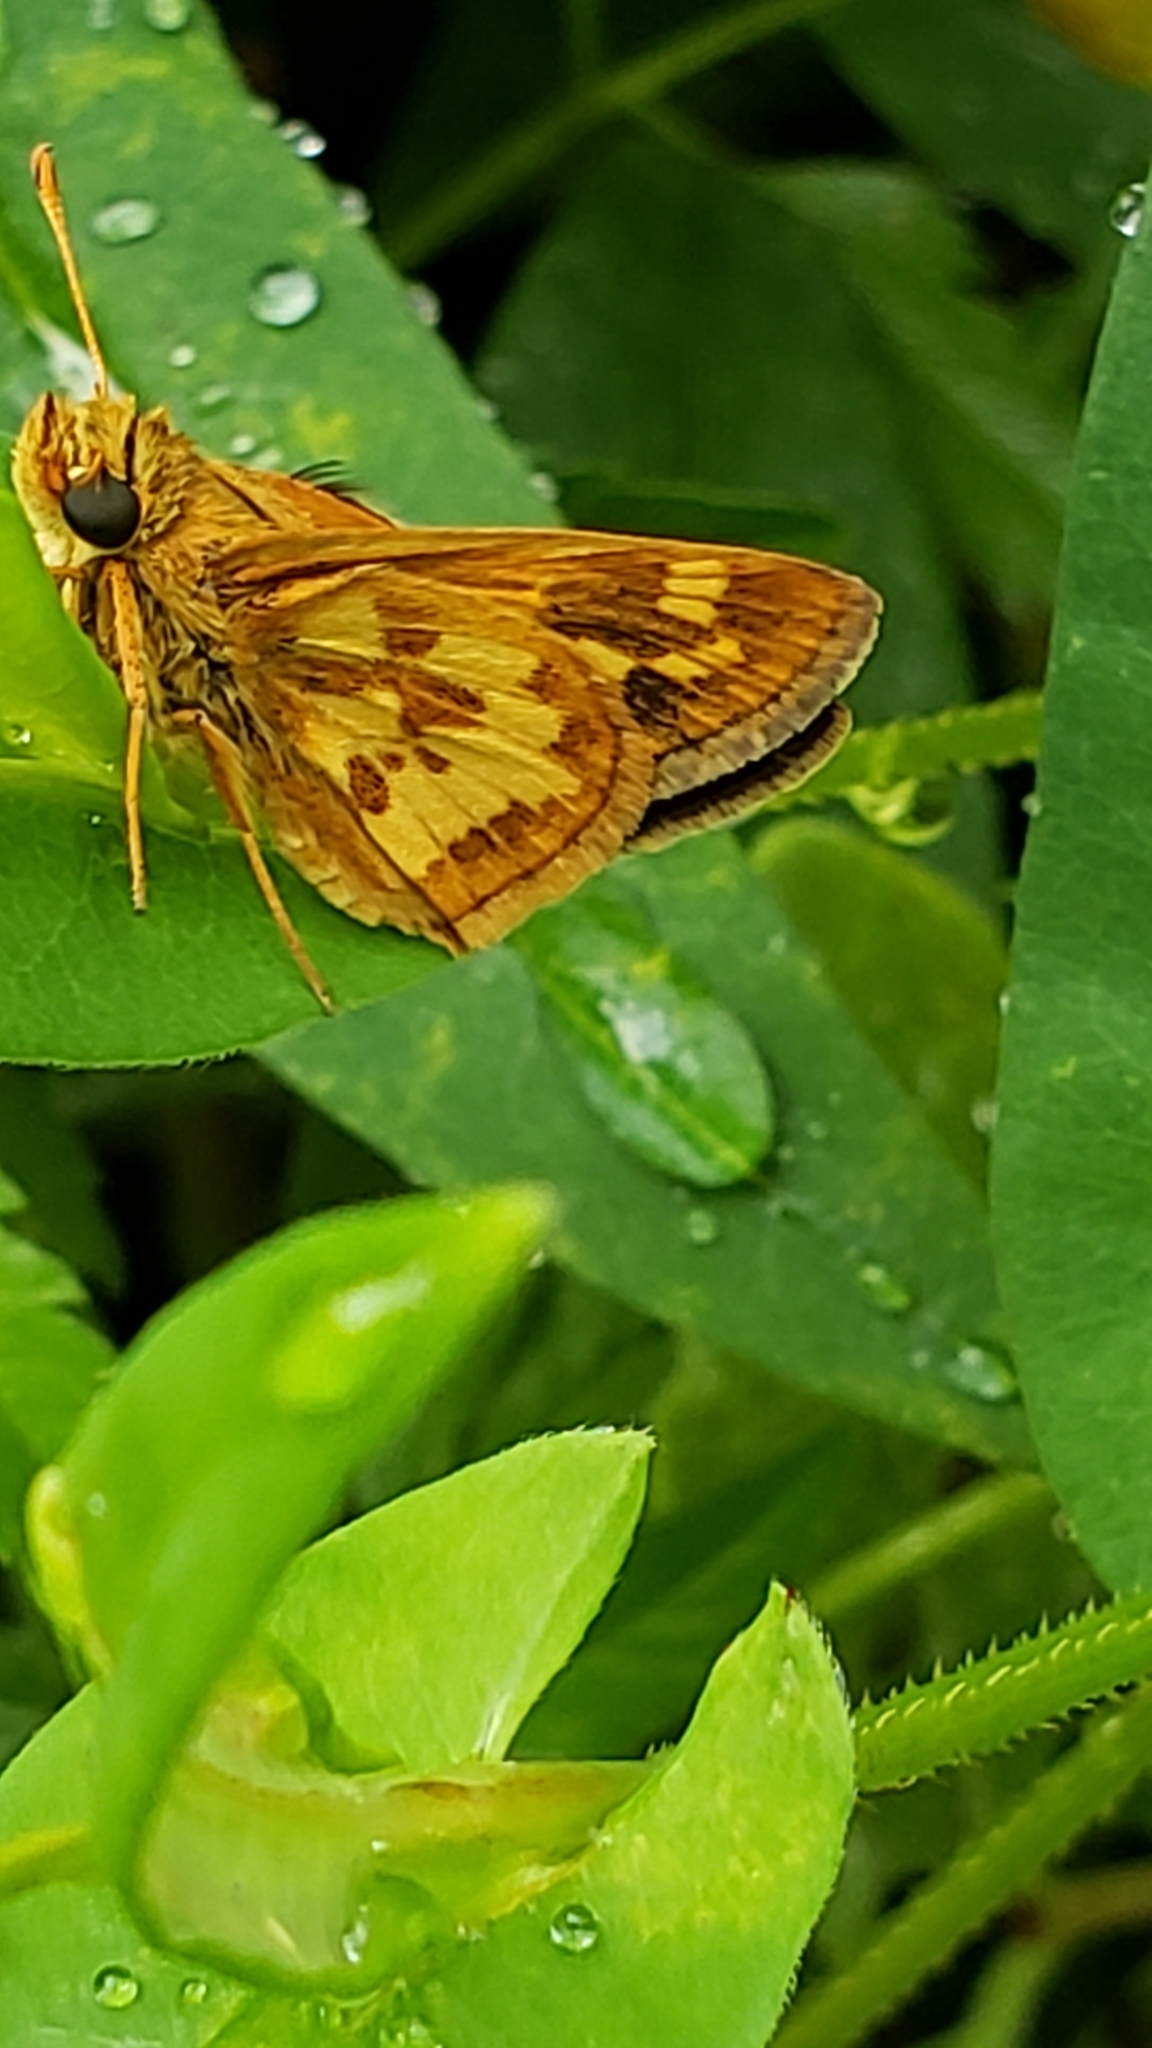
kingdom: Animalia
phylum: Arthropoda
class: Insecta
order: Lepidoptera
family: Hesperiidae
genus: Polites
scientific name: Polites coras
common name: Peck's skipper
